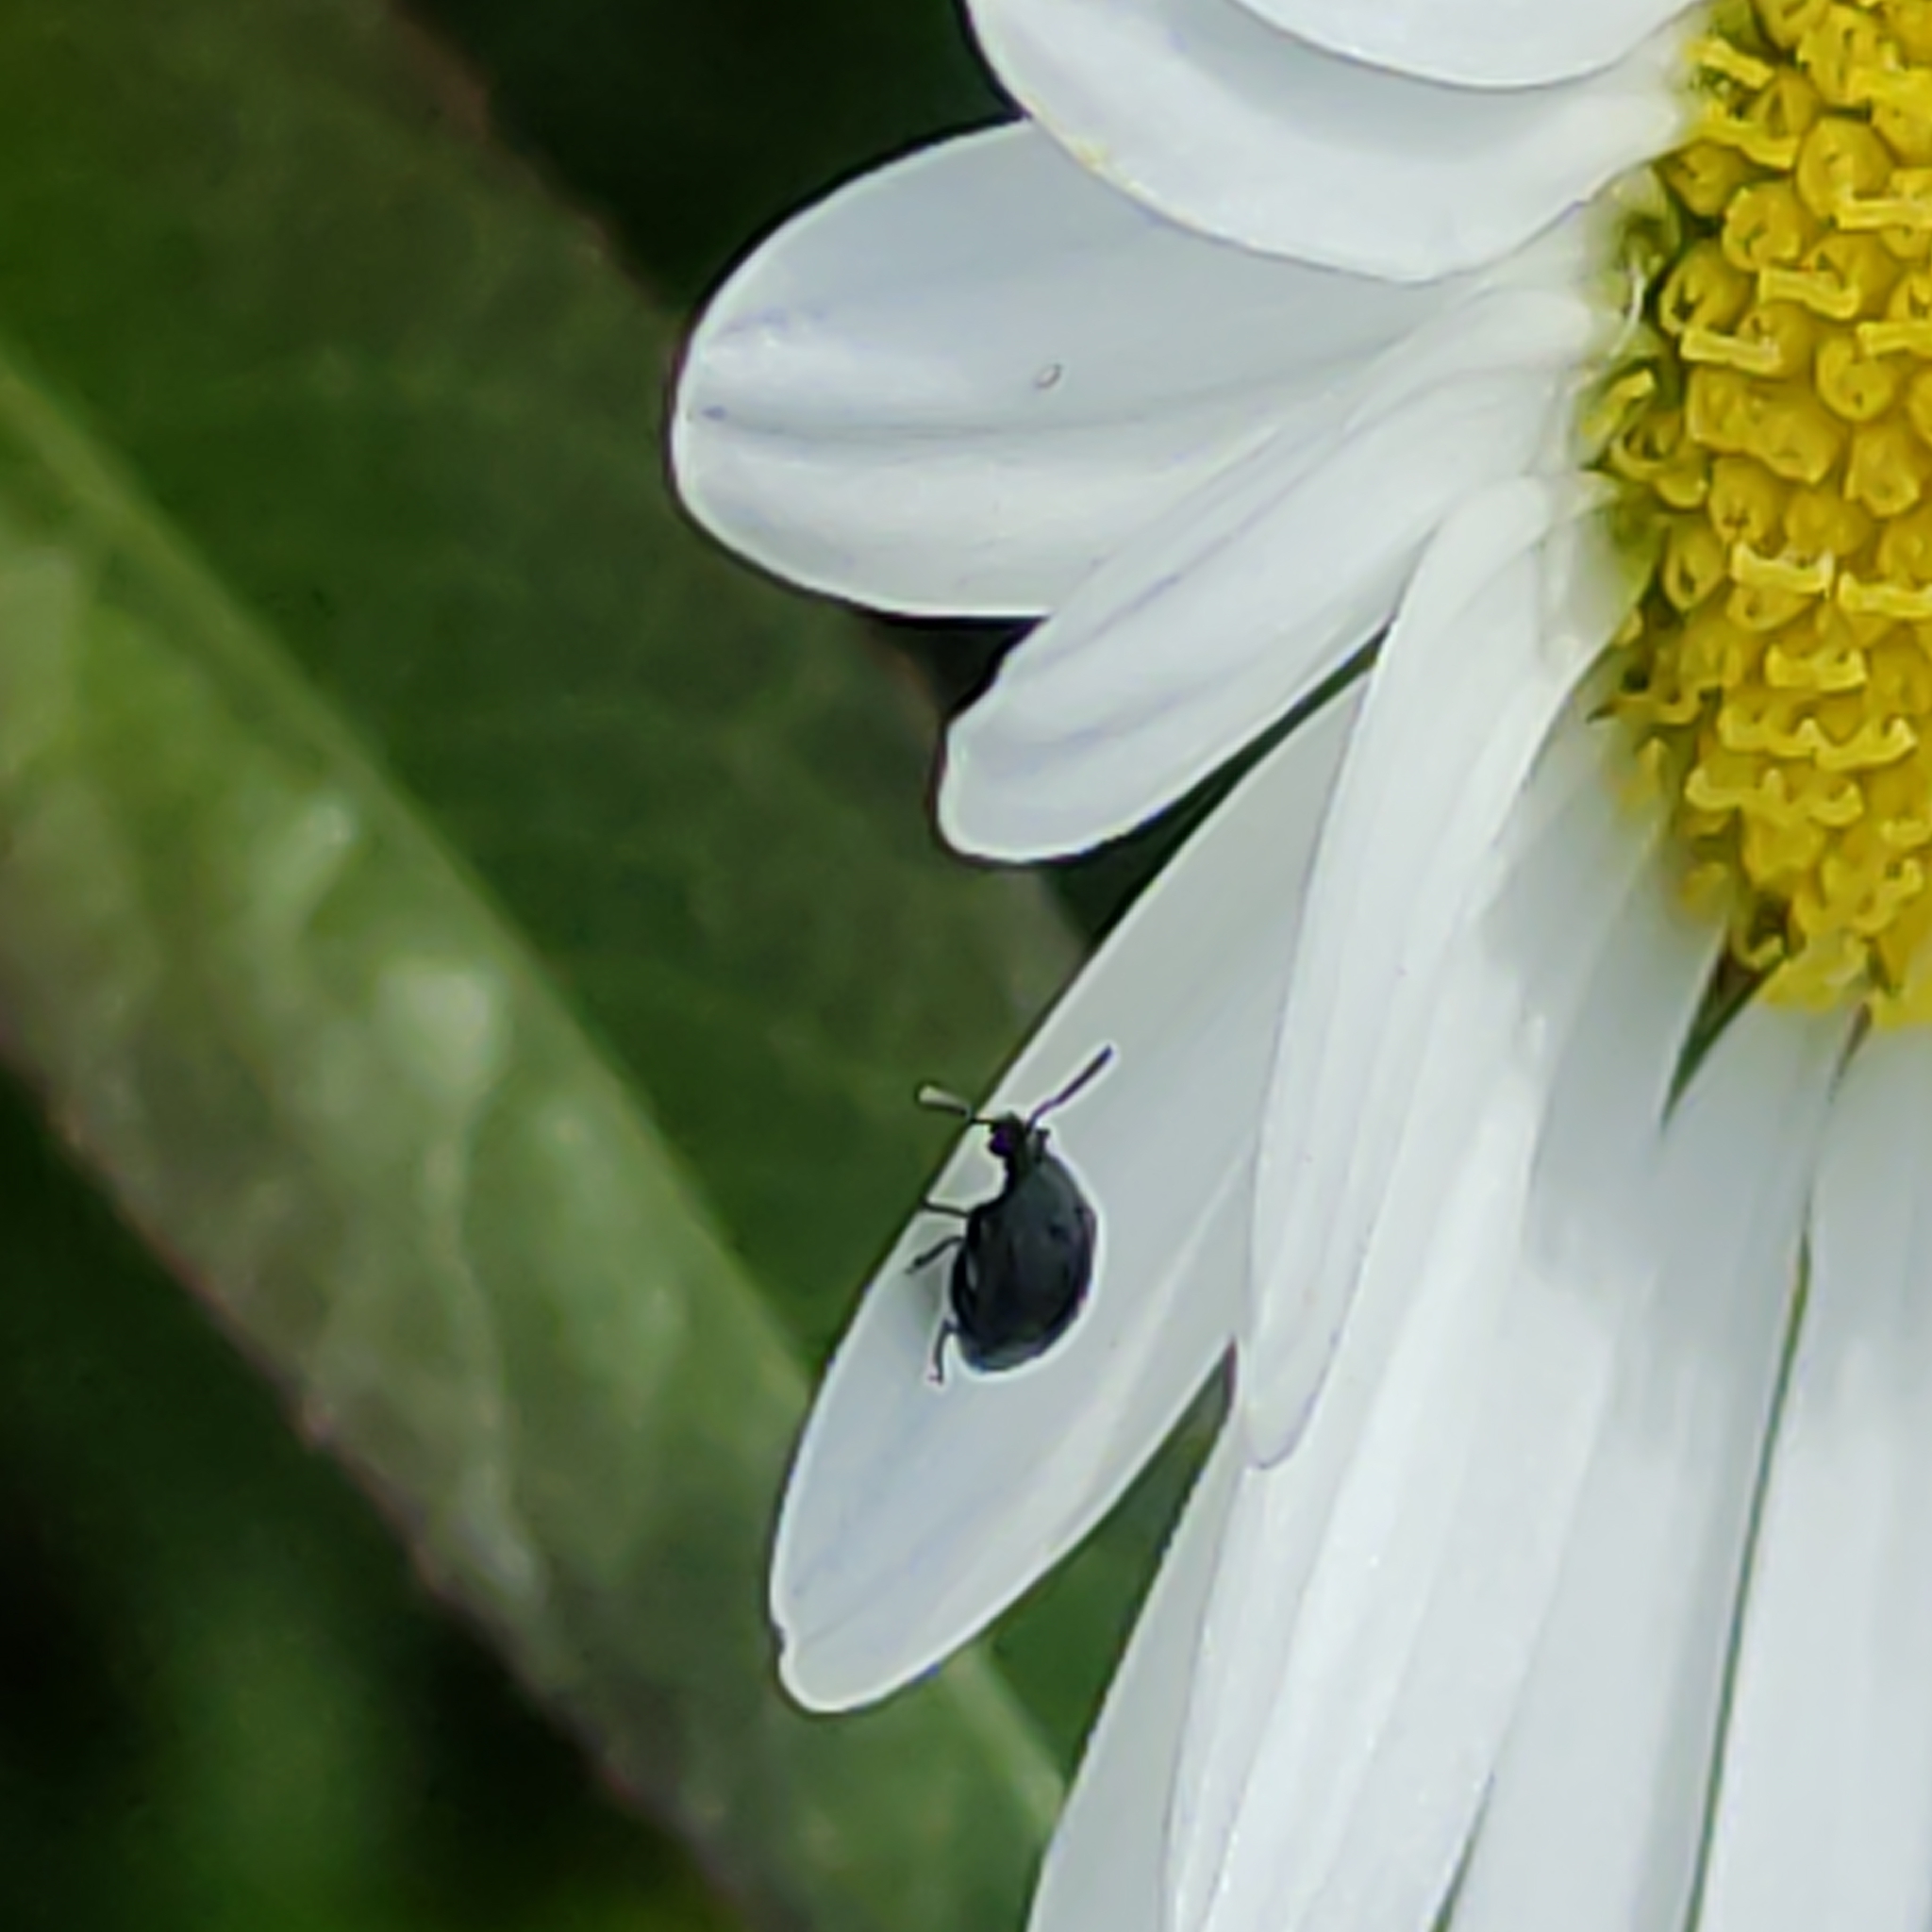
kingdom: Animalia
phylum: Arthropoda
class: Insecta
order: Coleoptera
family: Chrysomelidae
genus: Bruchidius
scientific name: Bruchidius villosus
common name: Scotch broom bruchid
